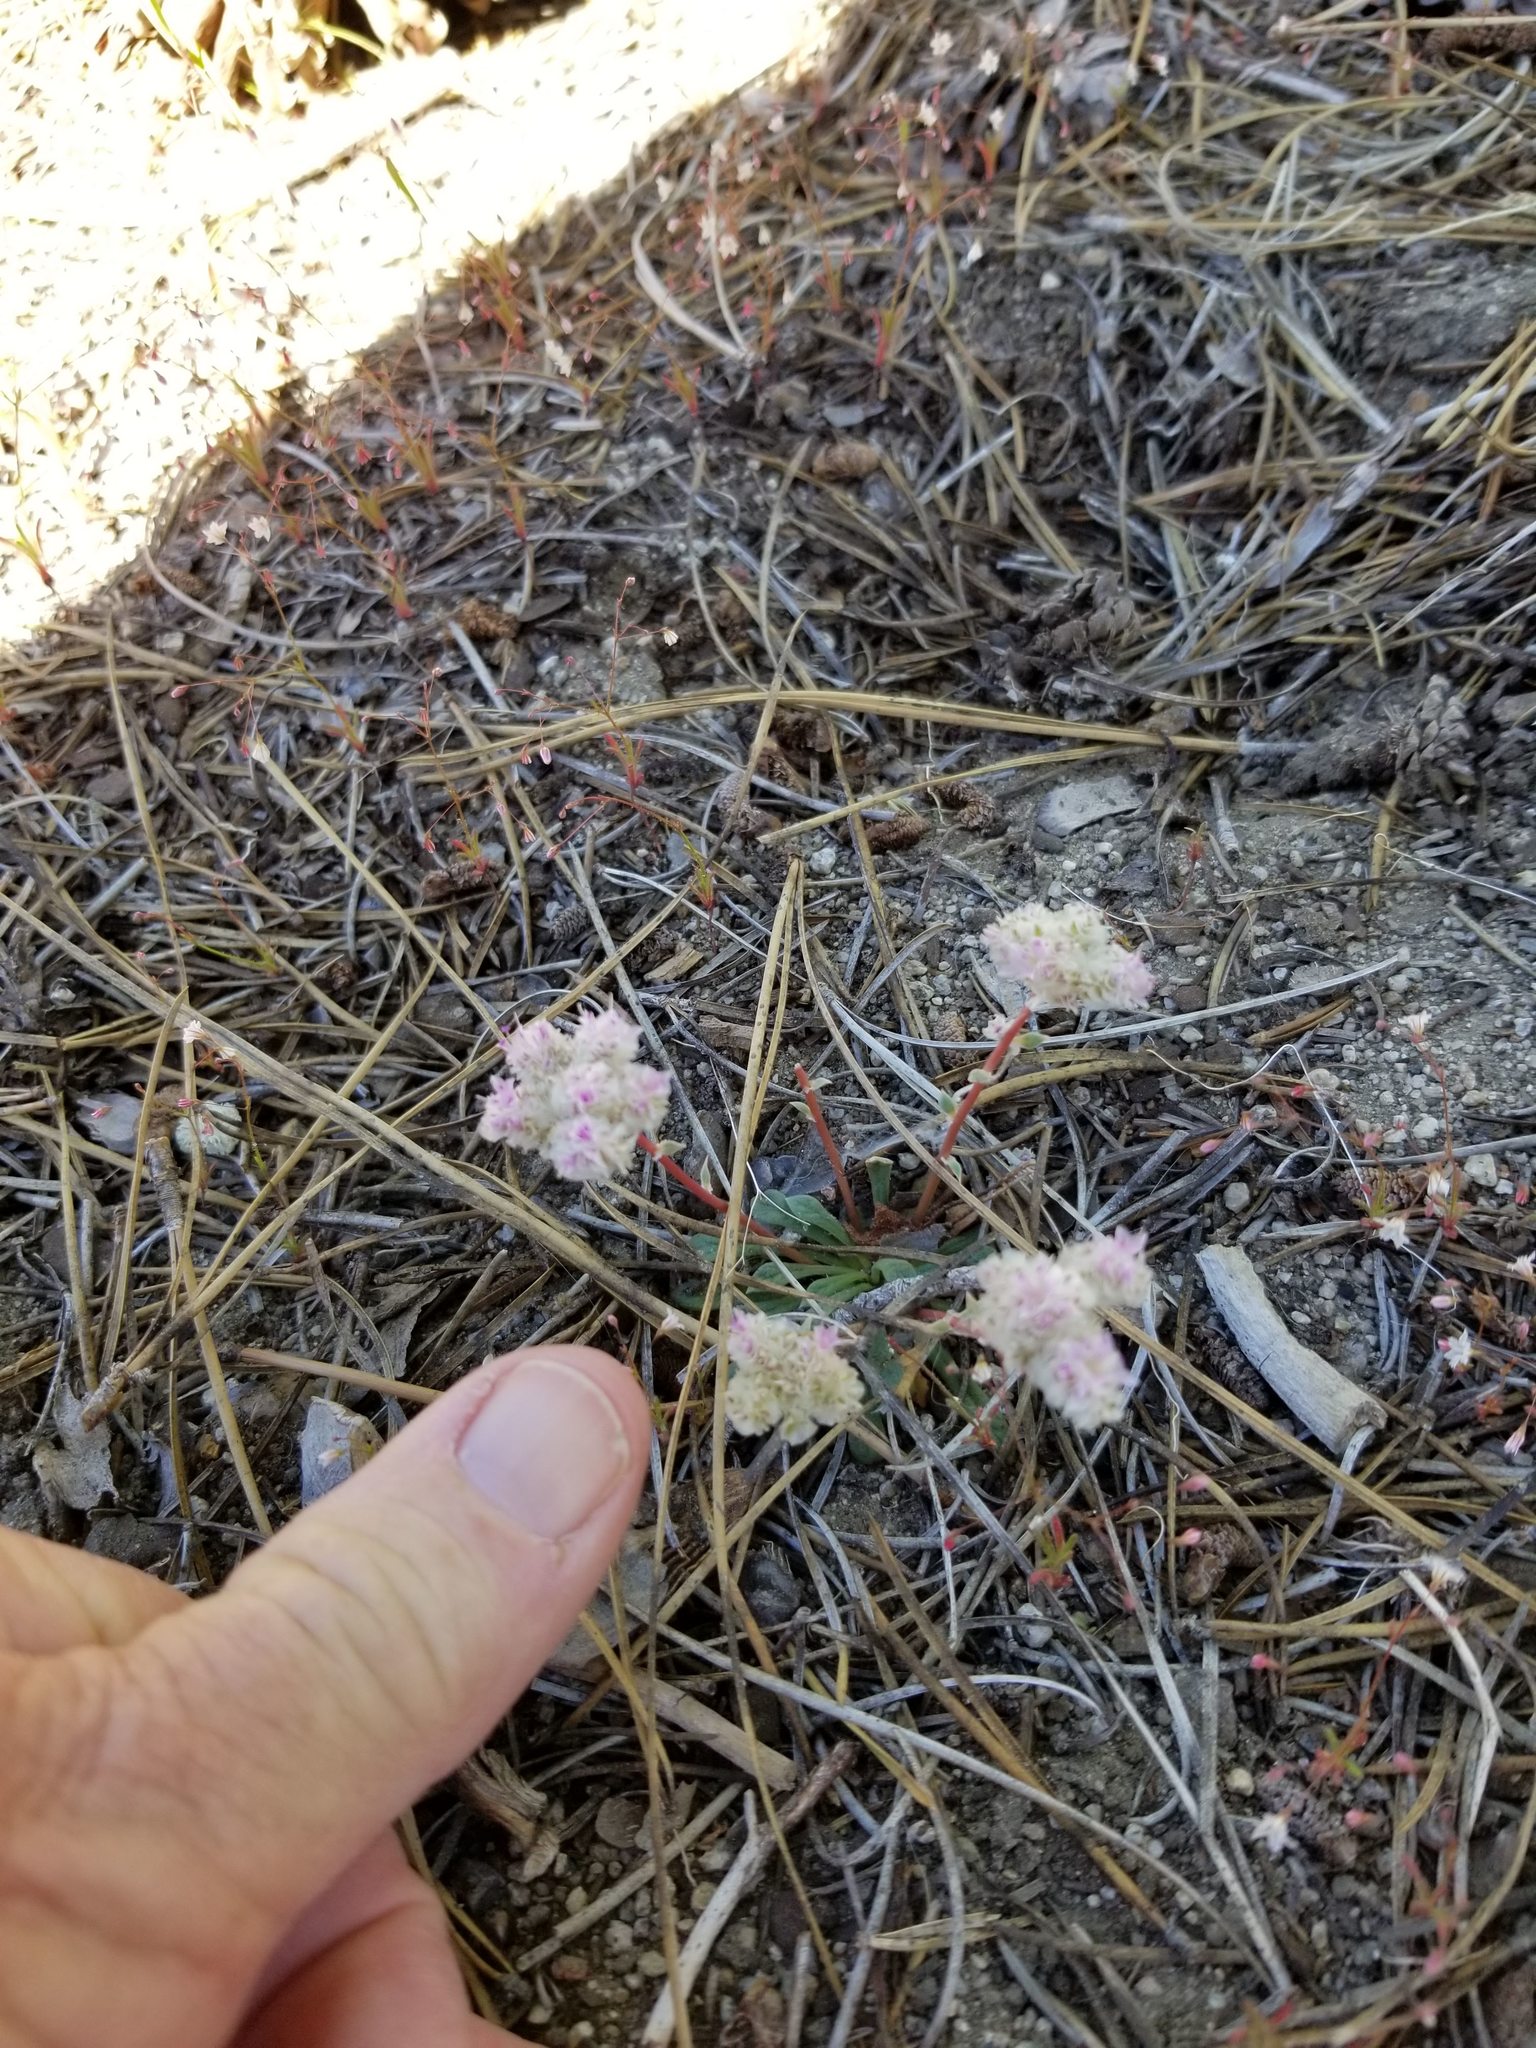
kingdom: Plantae
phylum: Tracheophyta
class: Magnoliopsida
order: Caryophyllales
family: Montiaceae
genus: Calyptridium
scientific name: Calyptridium monospermum
